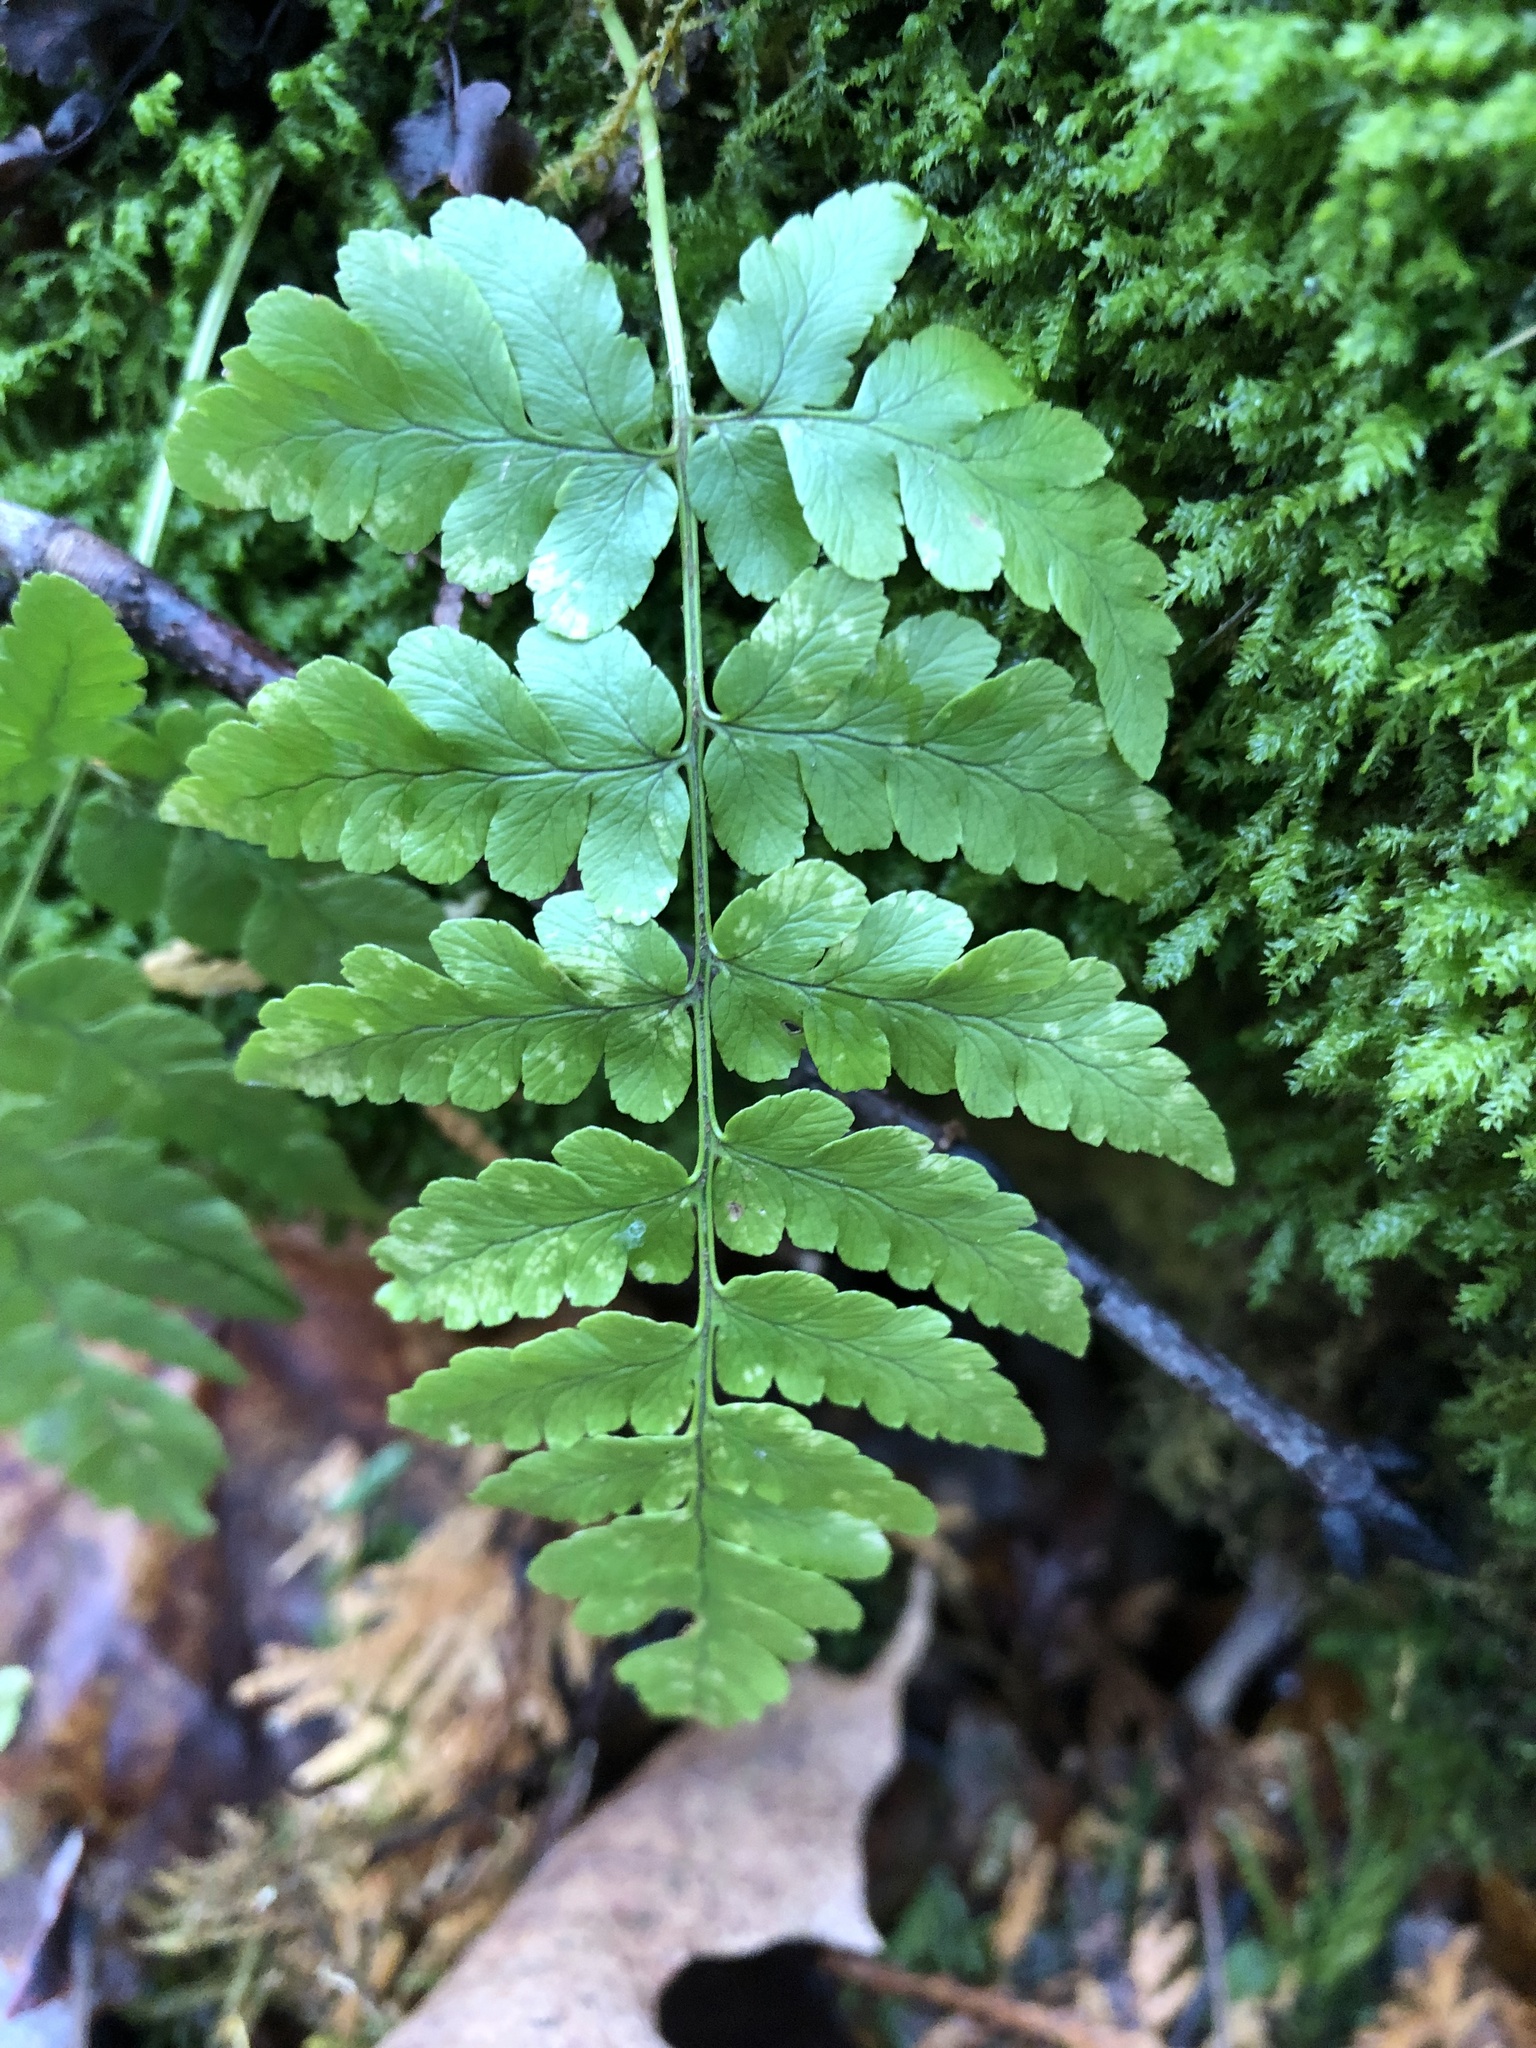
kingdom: Plantae
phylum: Tracheophyta
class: Polypodiopsida
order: Polypodiales
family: Dryopteridaceae
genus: Dryopteris
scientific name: Dryopteris marginalis
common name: Marginal wood fern
